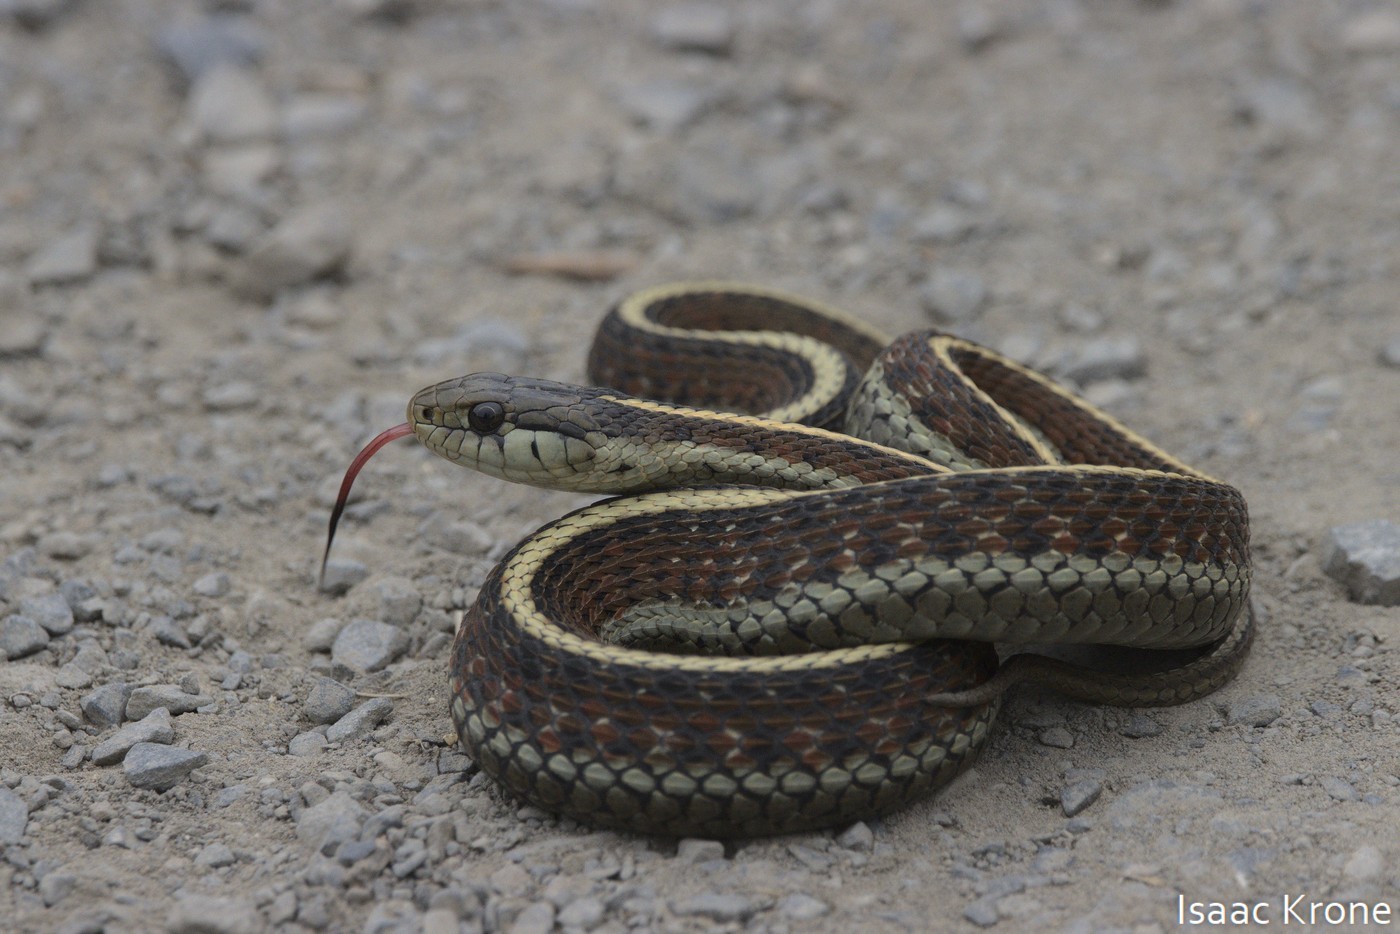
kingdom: Animalia
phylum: Chordata
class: Squamata
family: Colubridae
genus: Thamnophis
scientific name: Thamnophis elegans
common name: Western terrestrial garter snake
